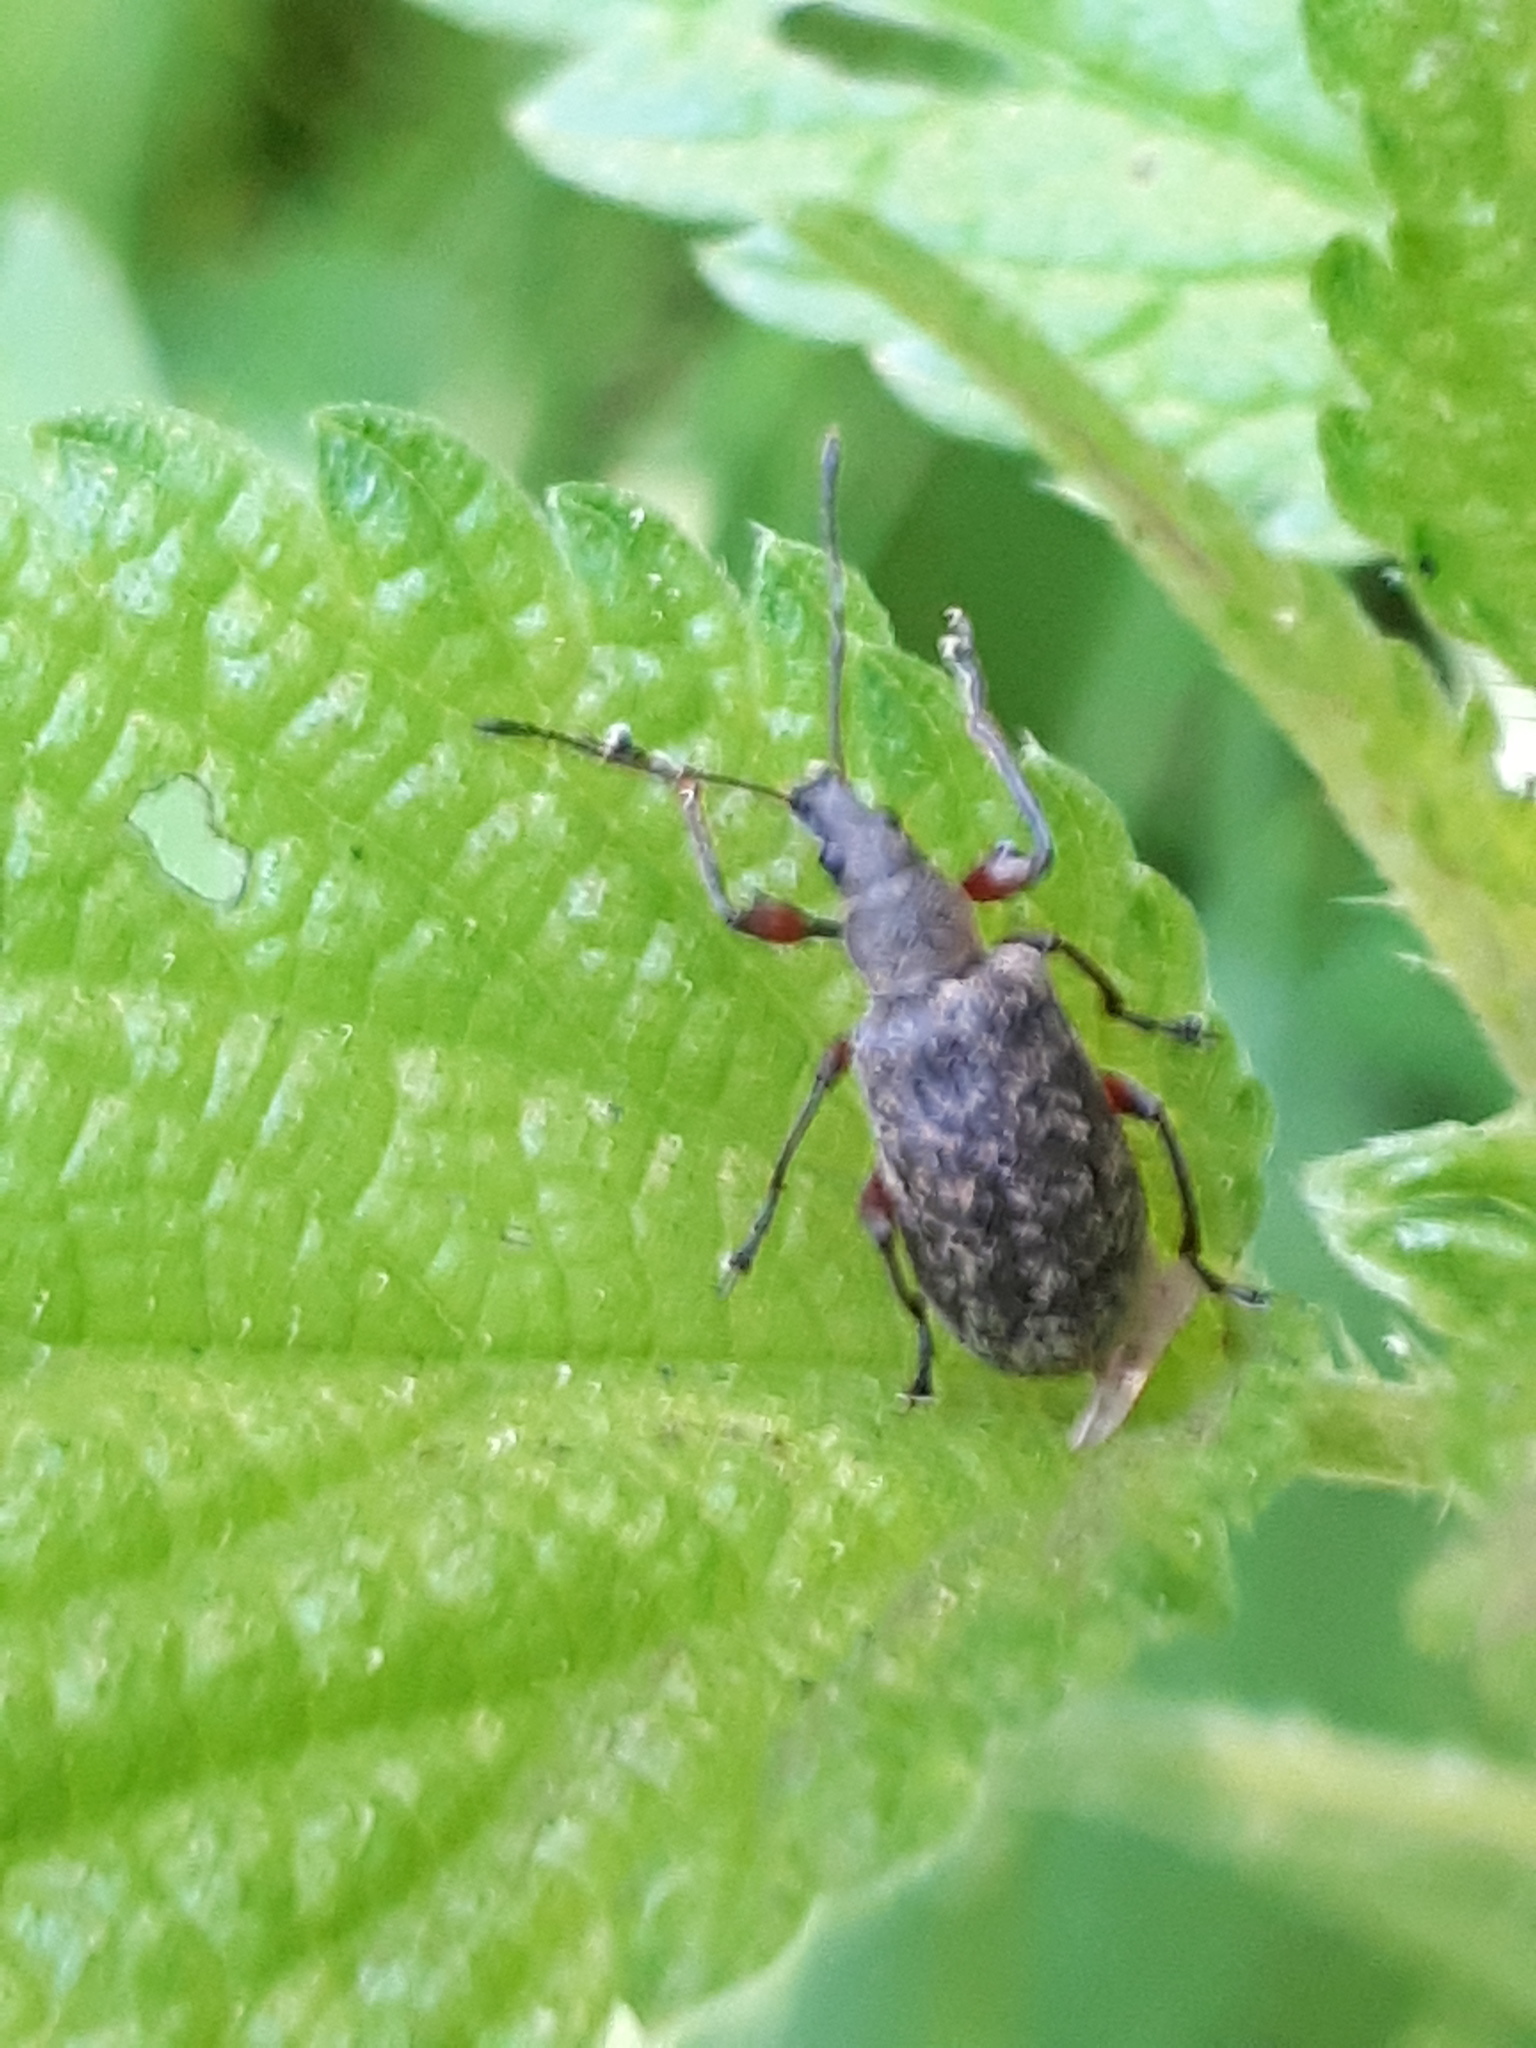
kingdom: Animalia
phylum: Arthropoda
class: Insecta
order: Coleoptera
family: Curculionidae
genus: Phyllobius
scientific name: Phyllobius glaucus
